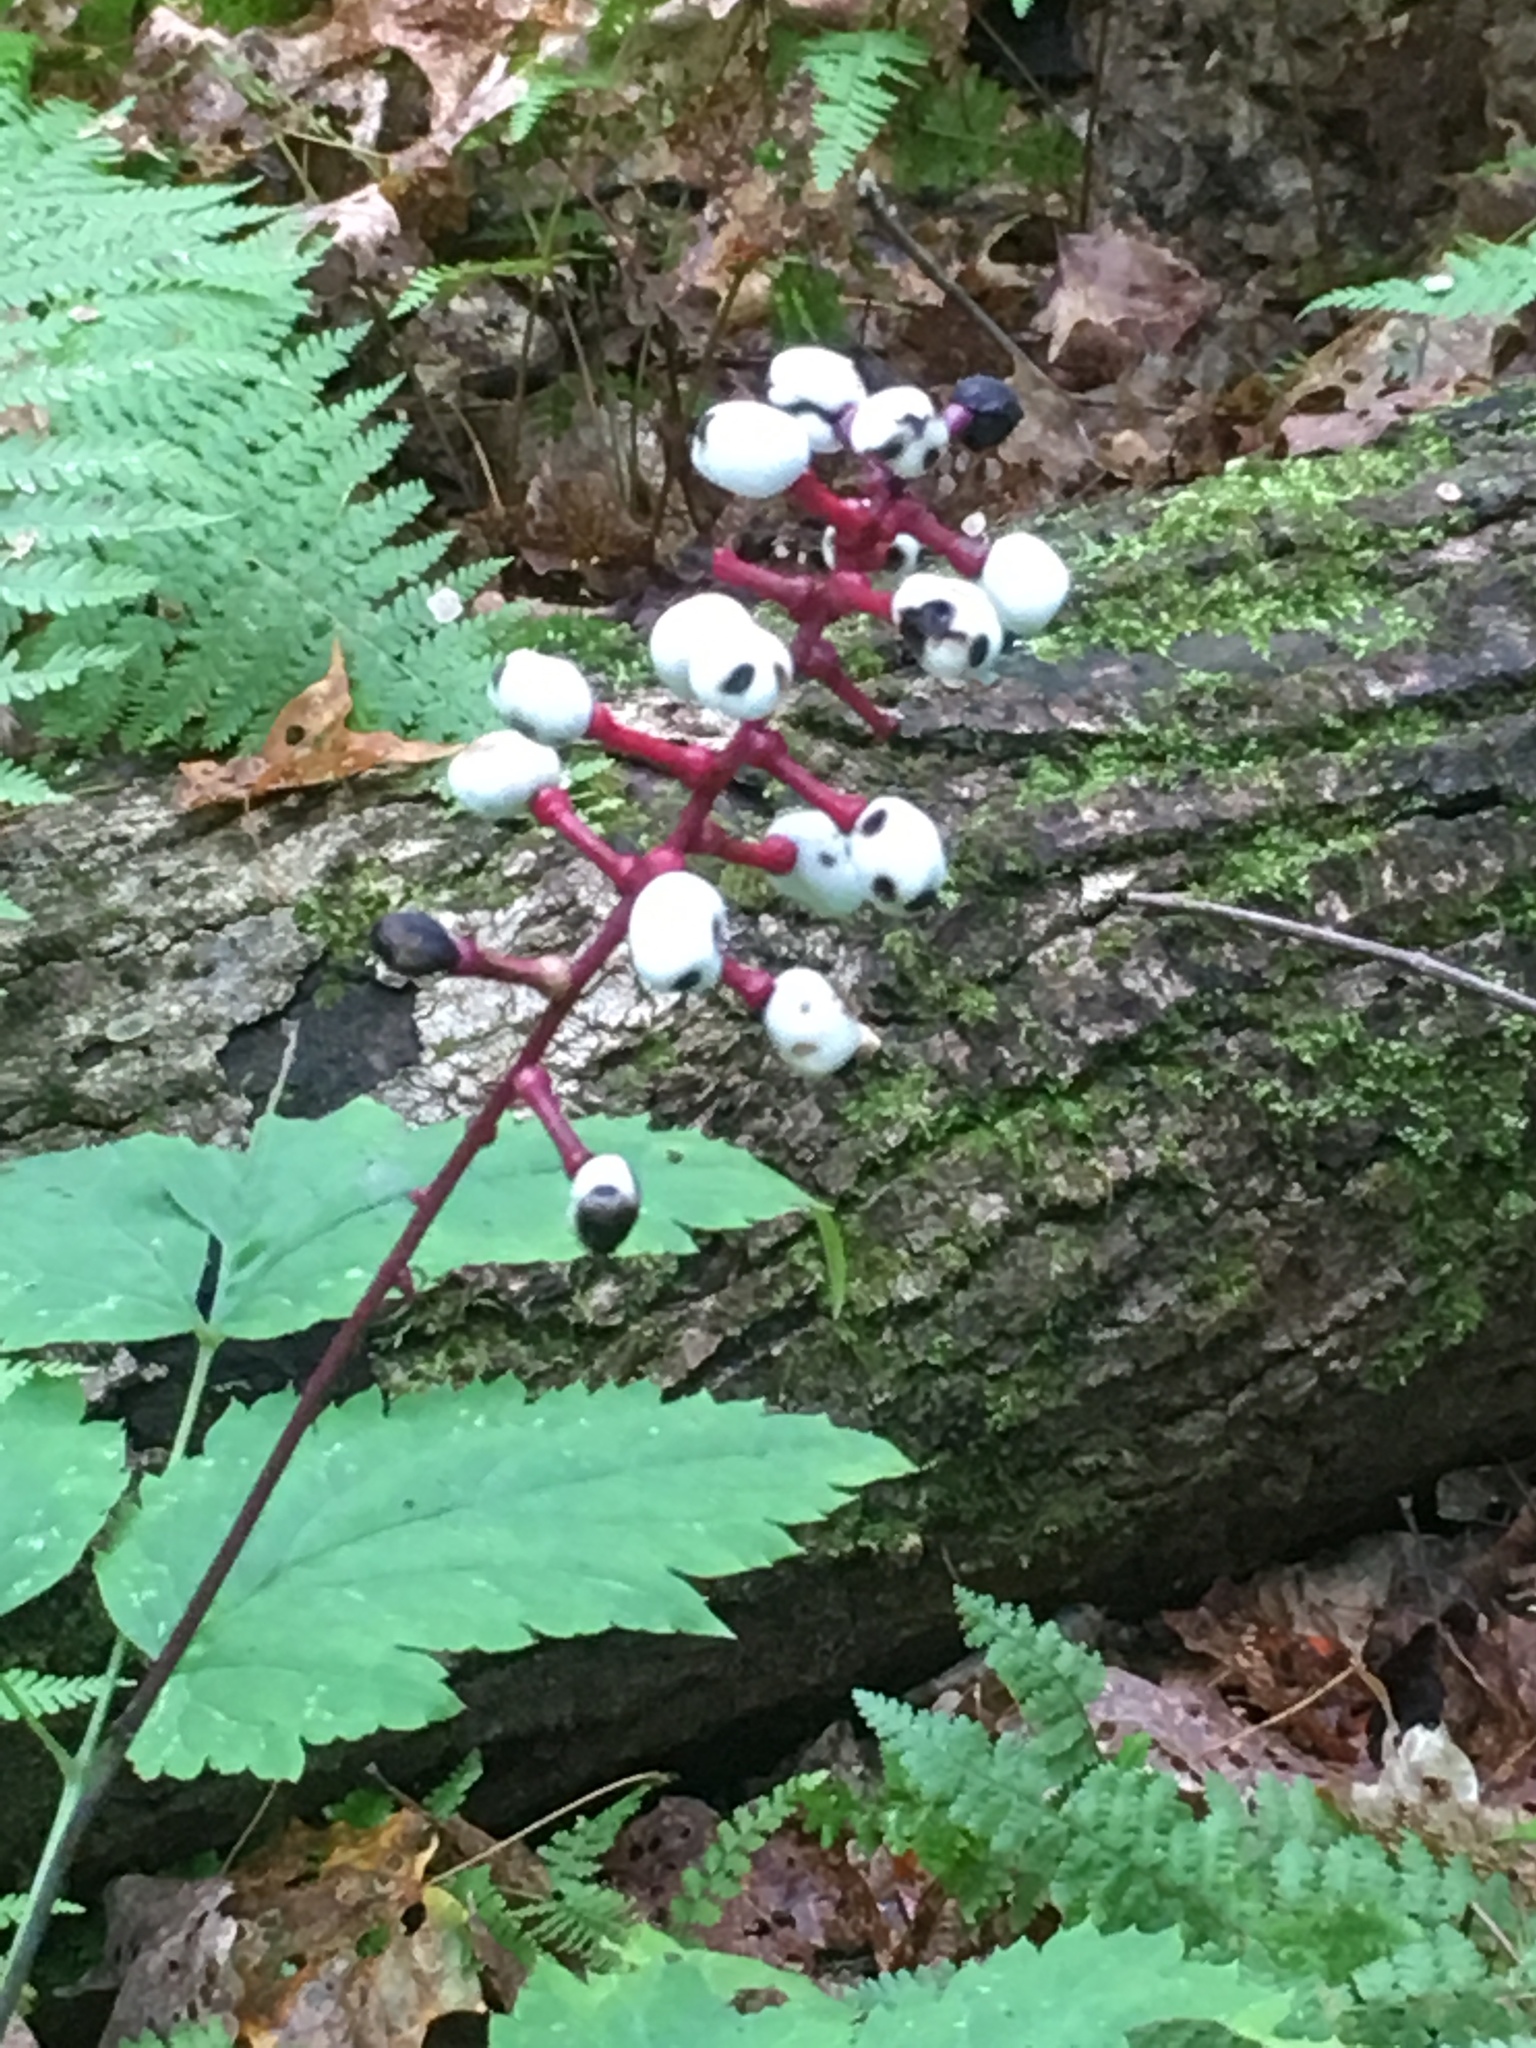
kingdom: Plantae
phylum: Tracheophyta
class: Magnoliopsida
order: Ranunculales
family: Ranunculaceae
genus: Actaea
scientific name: Actaea pachypoda
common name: Doll's-eyes
